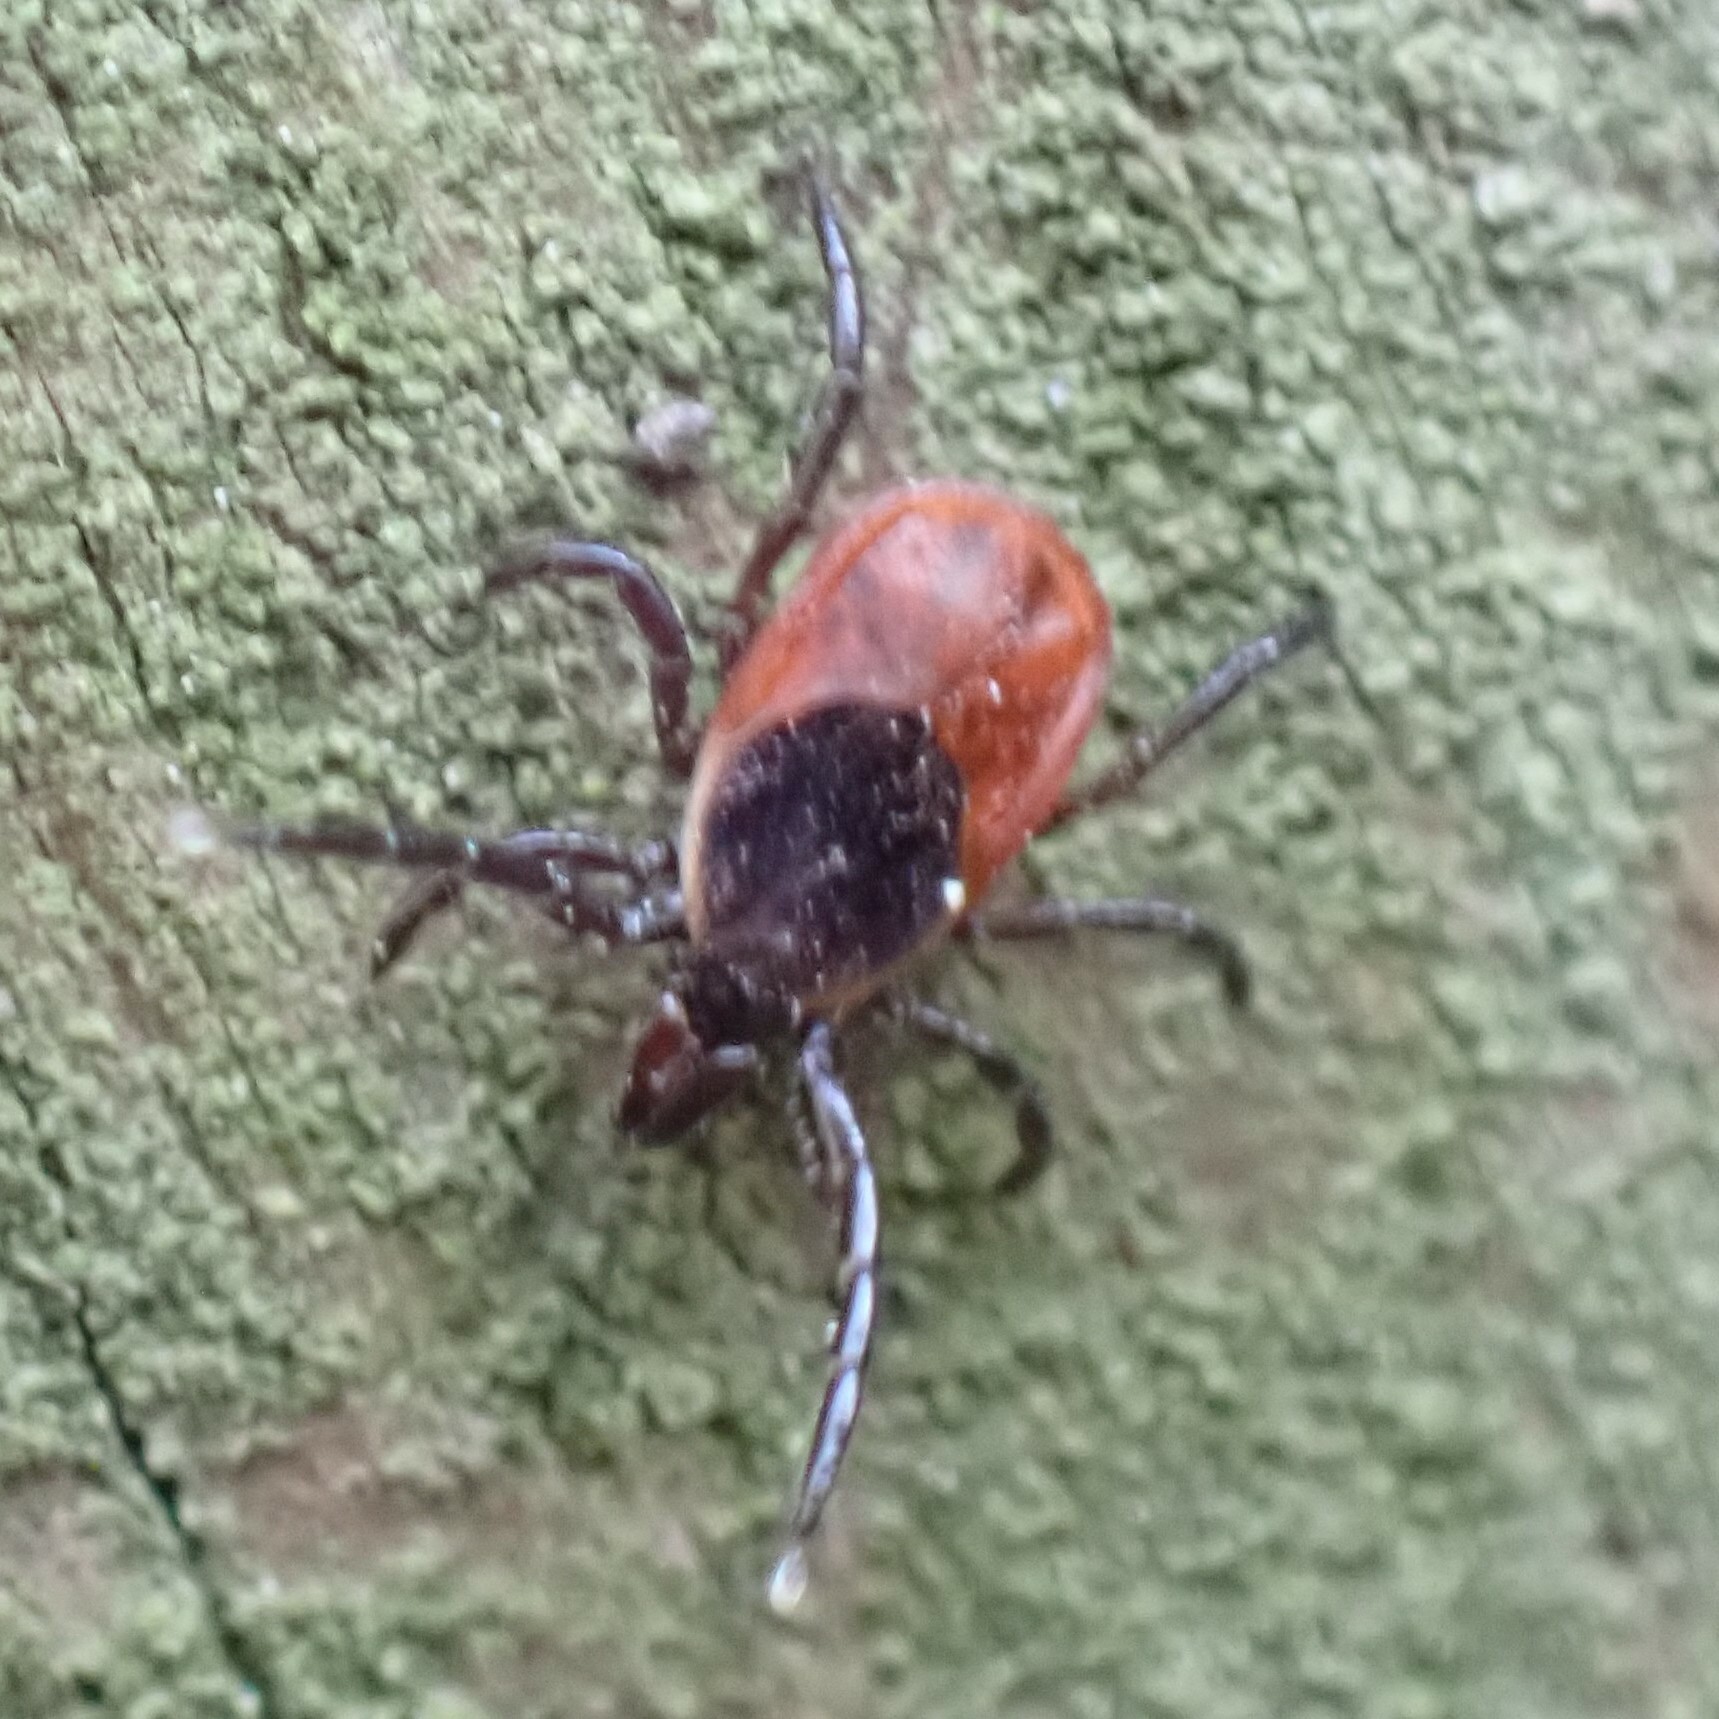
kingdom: Animalia
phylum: Arthropoda
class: Arachnida
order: Ixodida
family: Ixodidae
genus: Ixodes
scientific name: Ixodes scapularis
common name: Black legged tick
